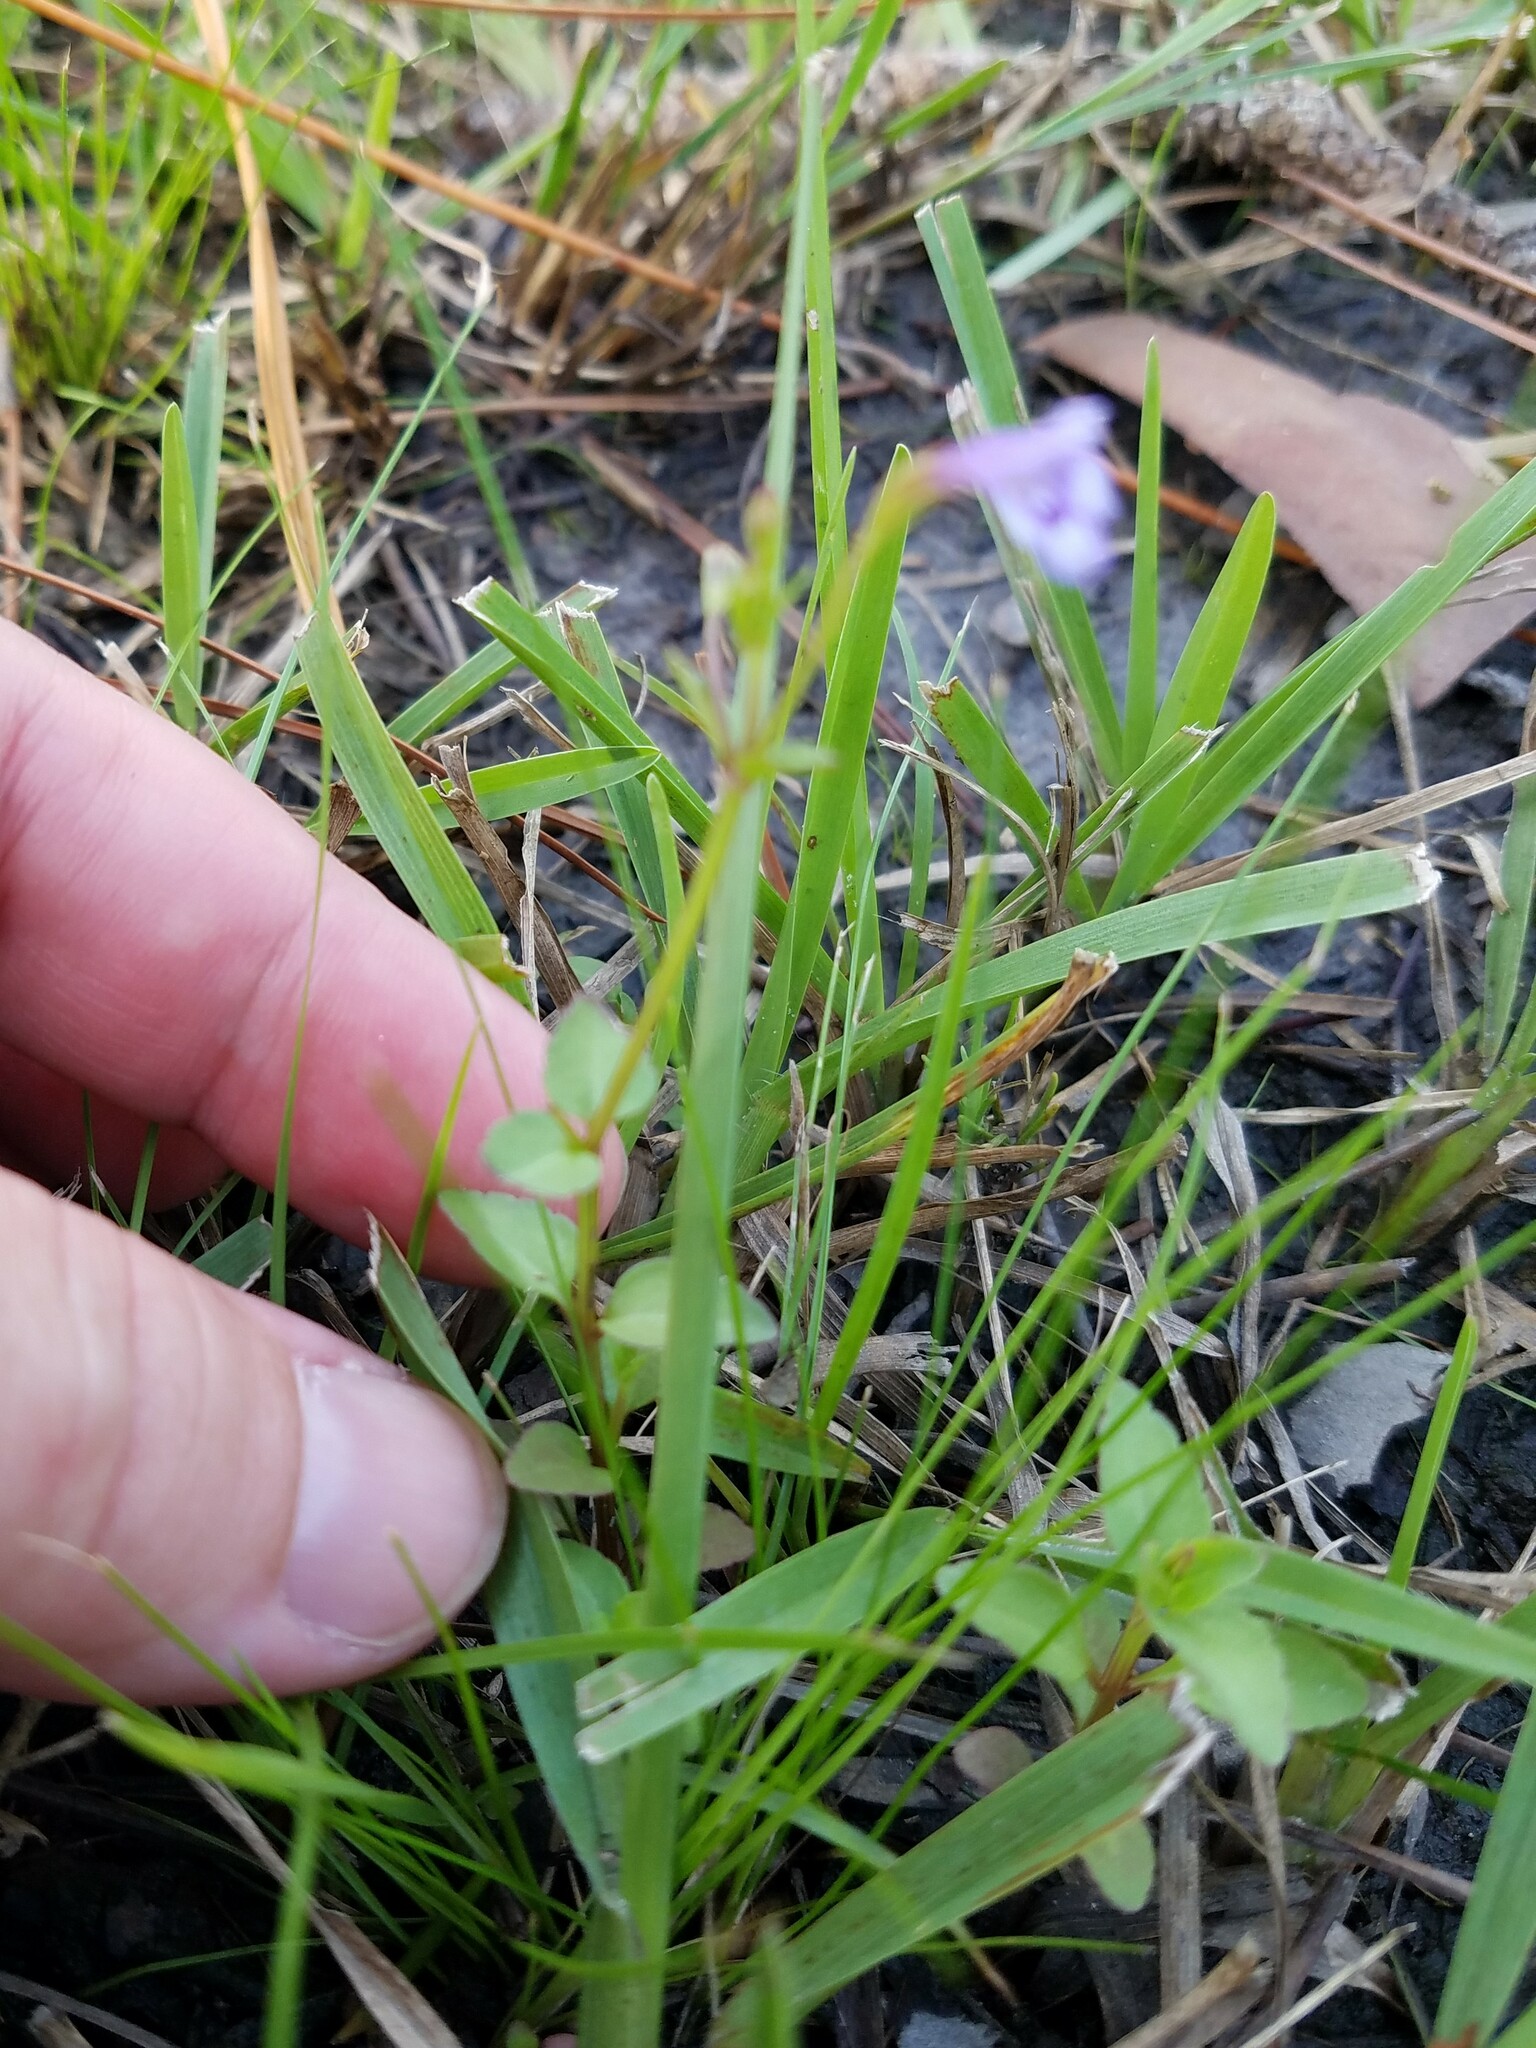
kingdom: Plantae
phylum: Tracheophyta
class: Magnoliopsida
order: Lamiales
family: Linderniaceae
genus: Torenia
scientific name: Torenia crustacea
